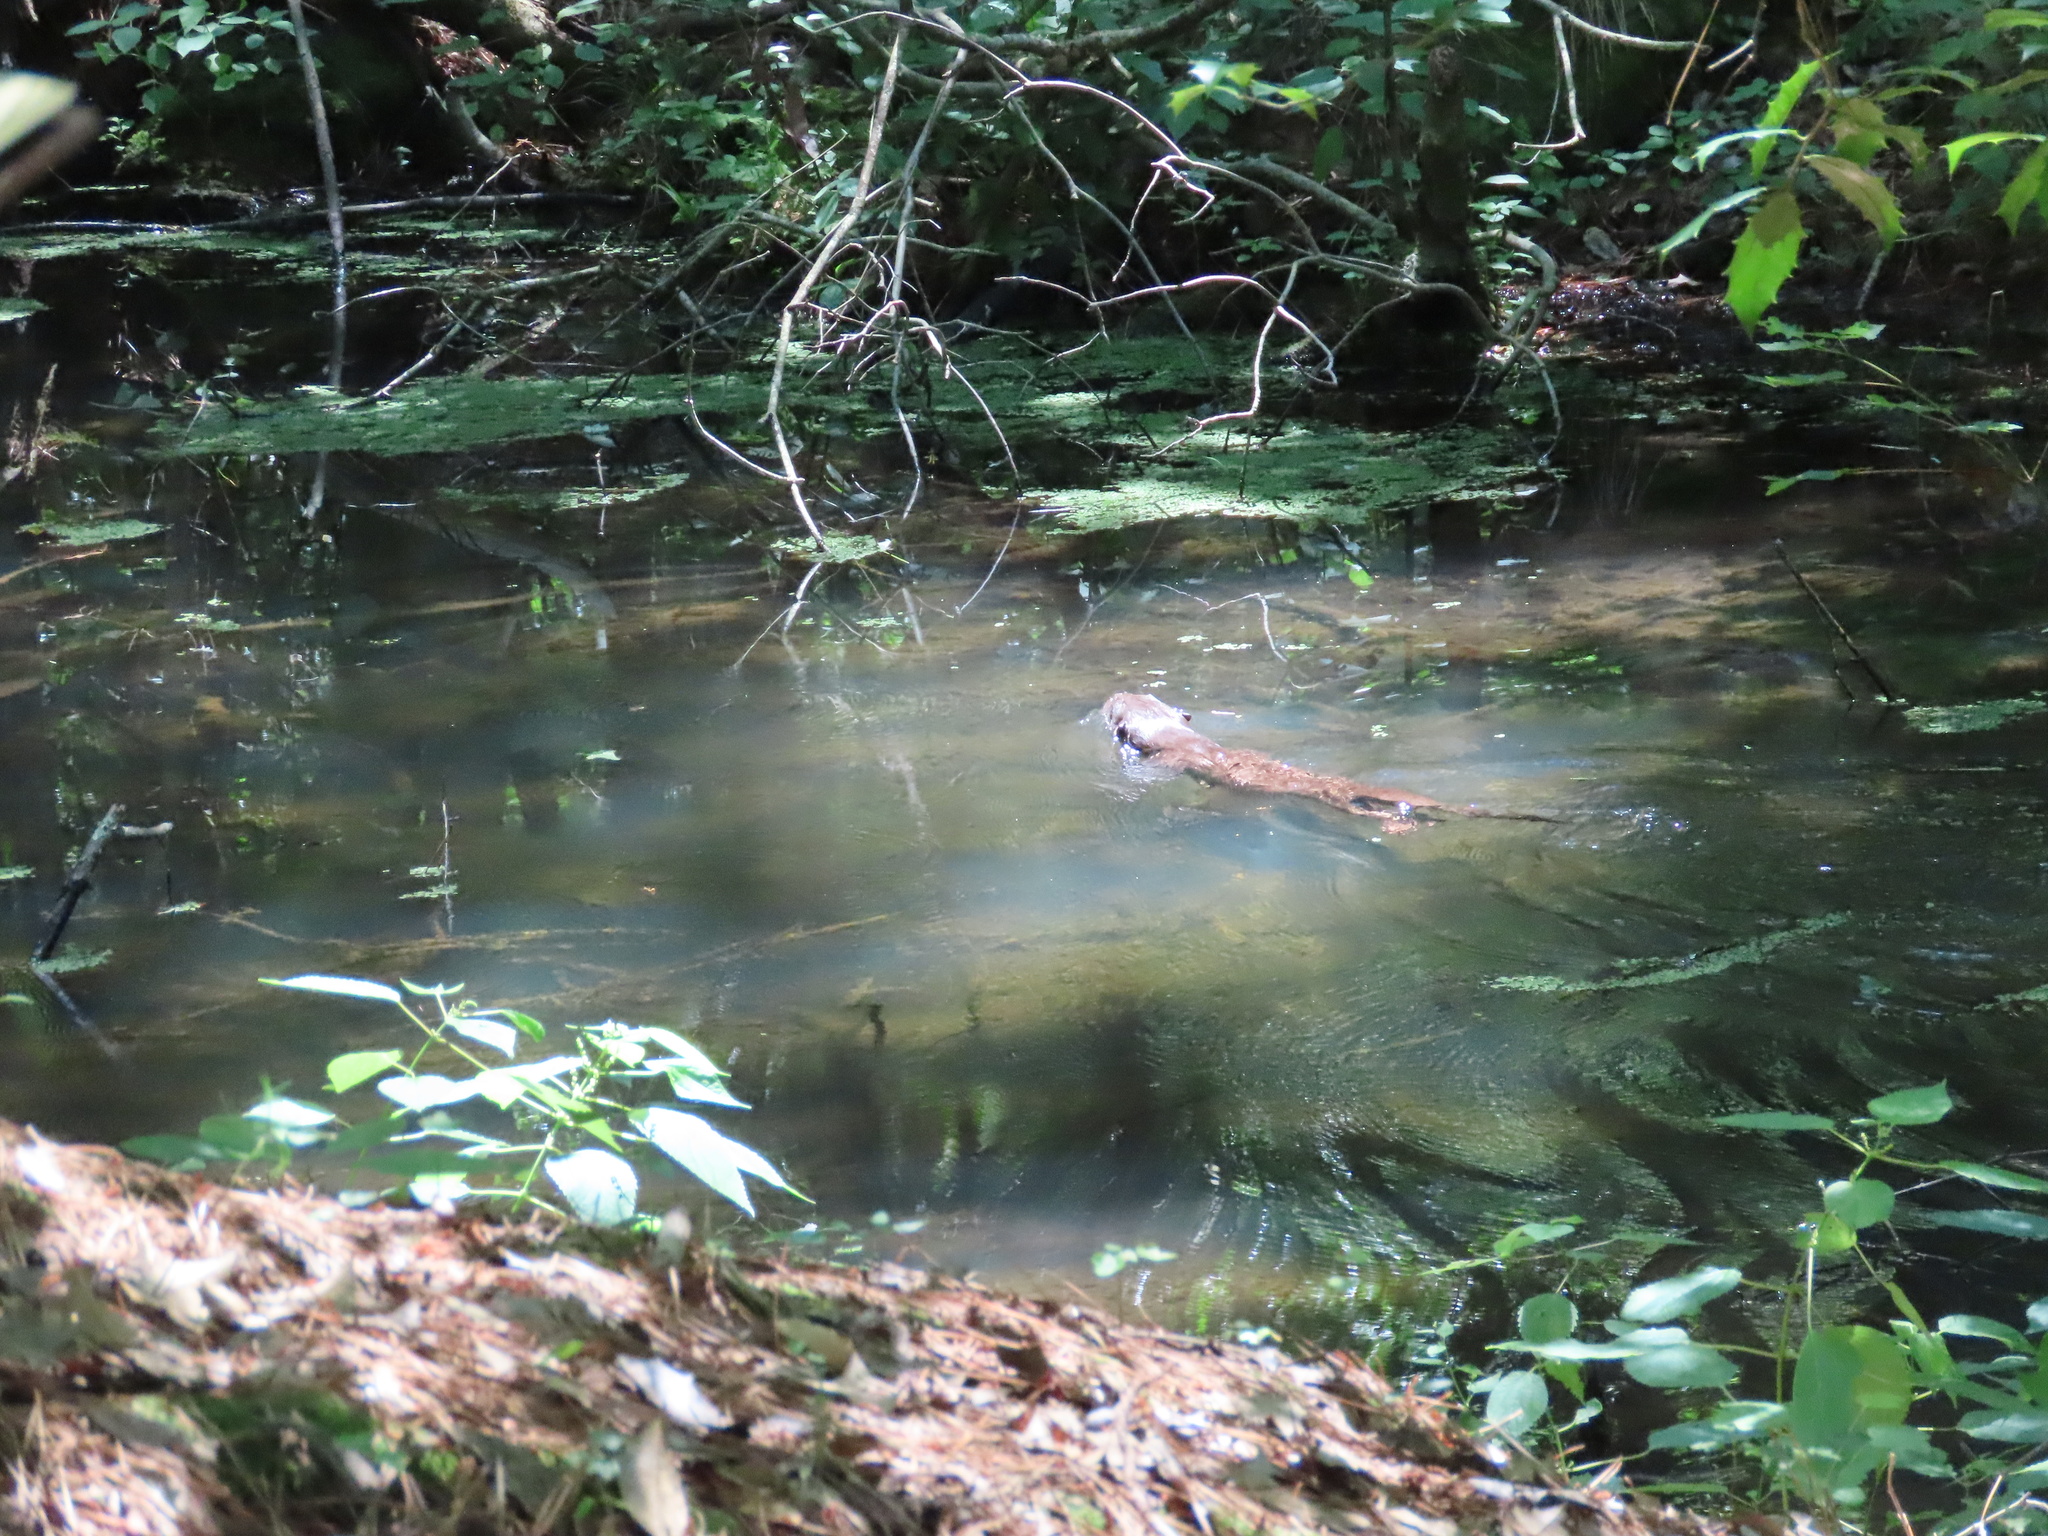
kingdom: Animalia
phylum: Chordata
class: Mammalia
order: Carnivora
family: Mustelidae
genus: Lontra
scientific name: Lontra canadensis
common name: North american river otter
